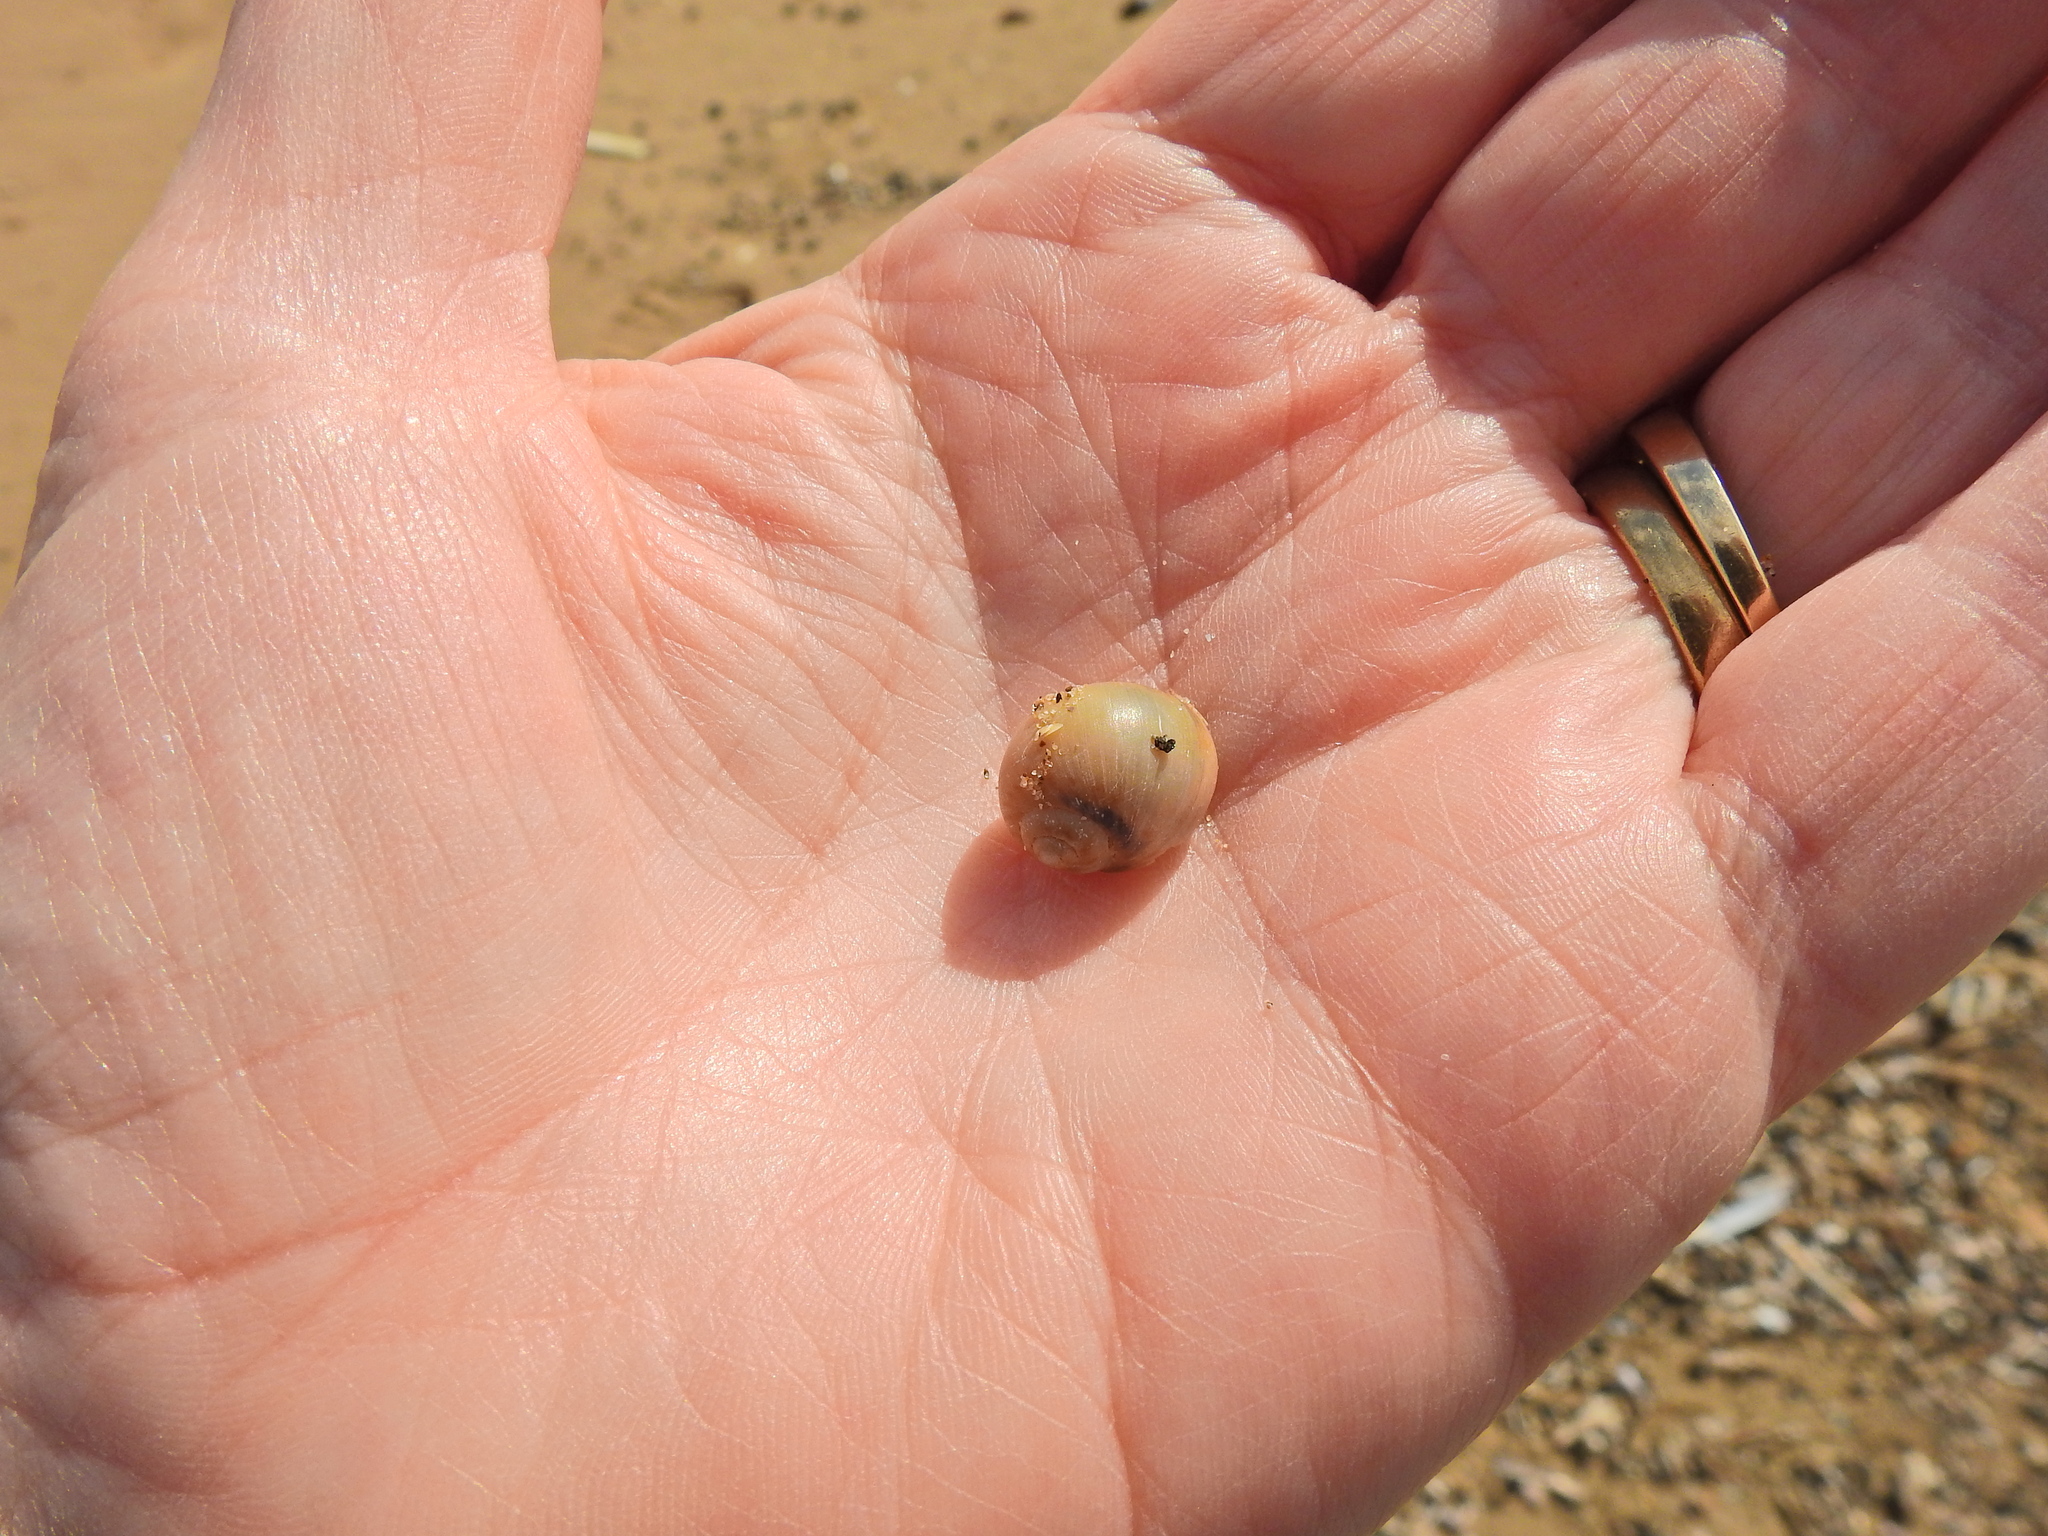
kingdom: Animalia
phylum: Mollusca
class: Gastropoda
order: Littorinimorpha
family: Naticidae
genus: Euspira
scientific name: Euspira catena
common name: Necklace shell
